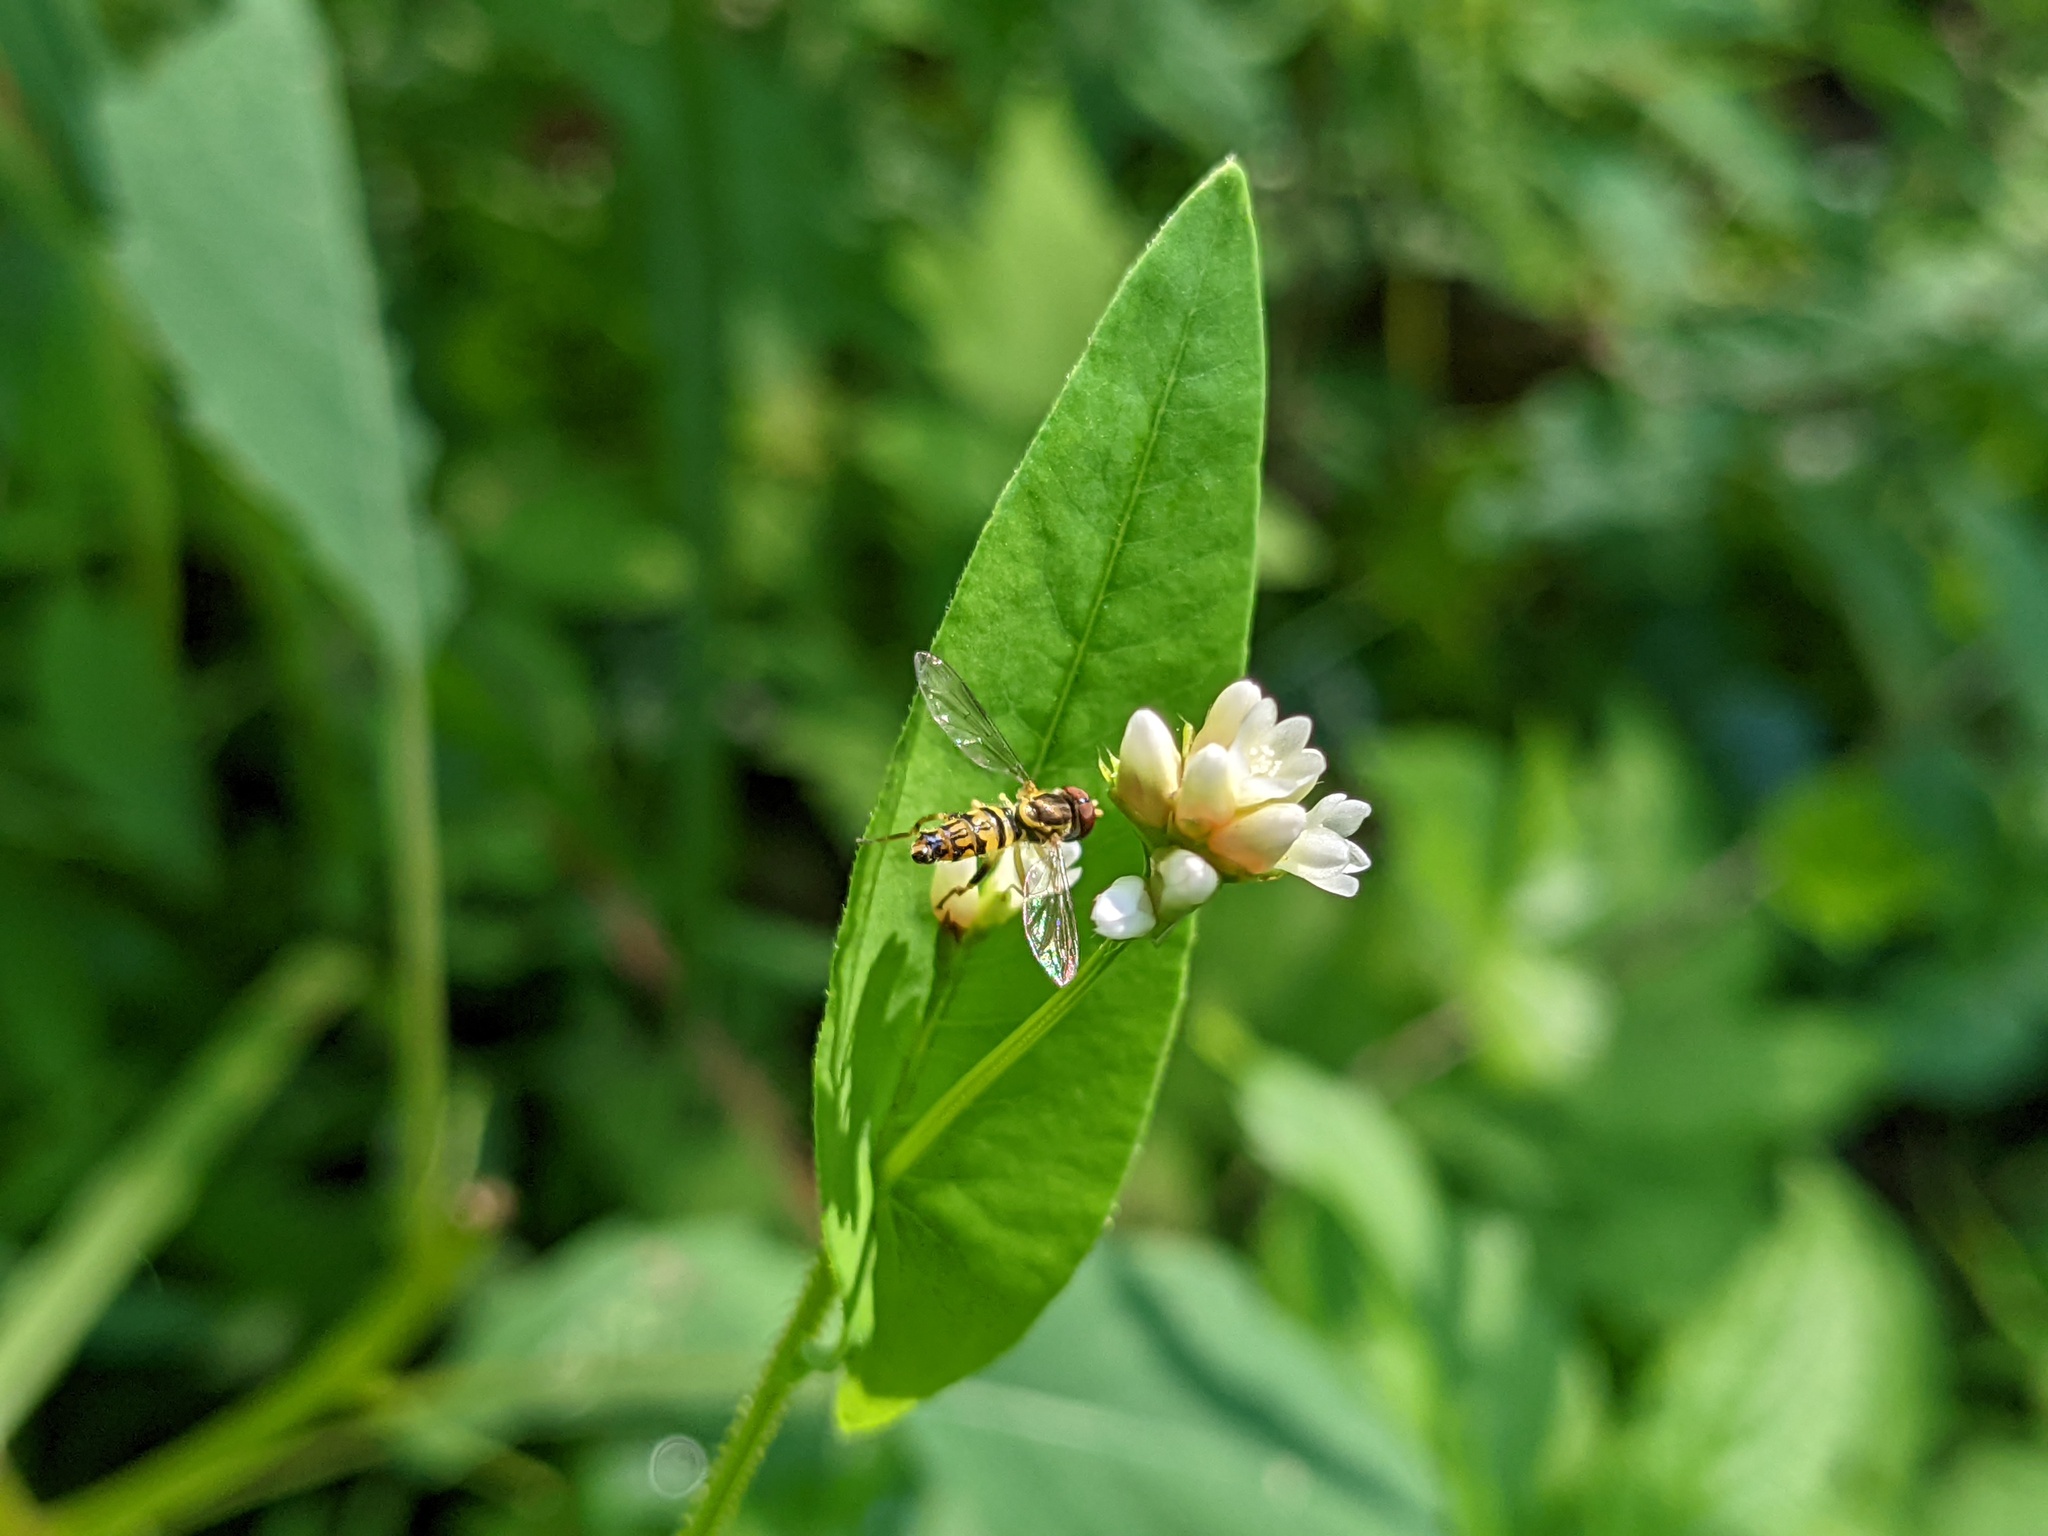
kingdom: Plantae
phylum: Tracheophyta
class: Magnoliopsida
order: Caryophyllales
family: Polygonaceae
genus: Persicaria
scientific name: Persicaria sagittata
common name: American tearthumb
